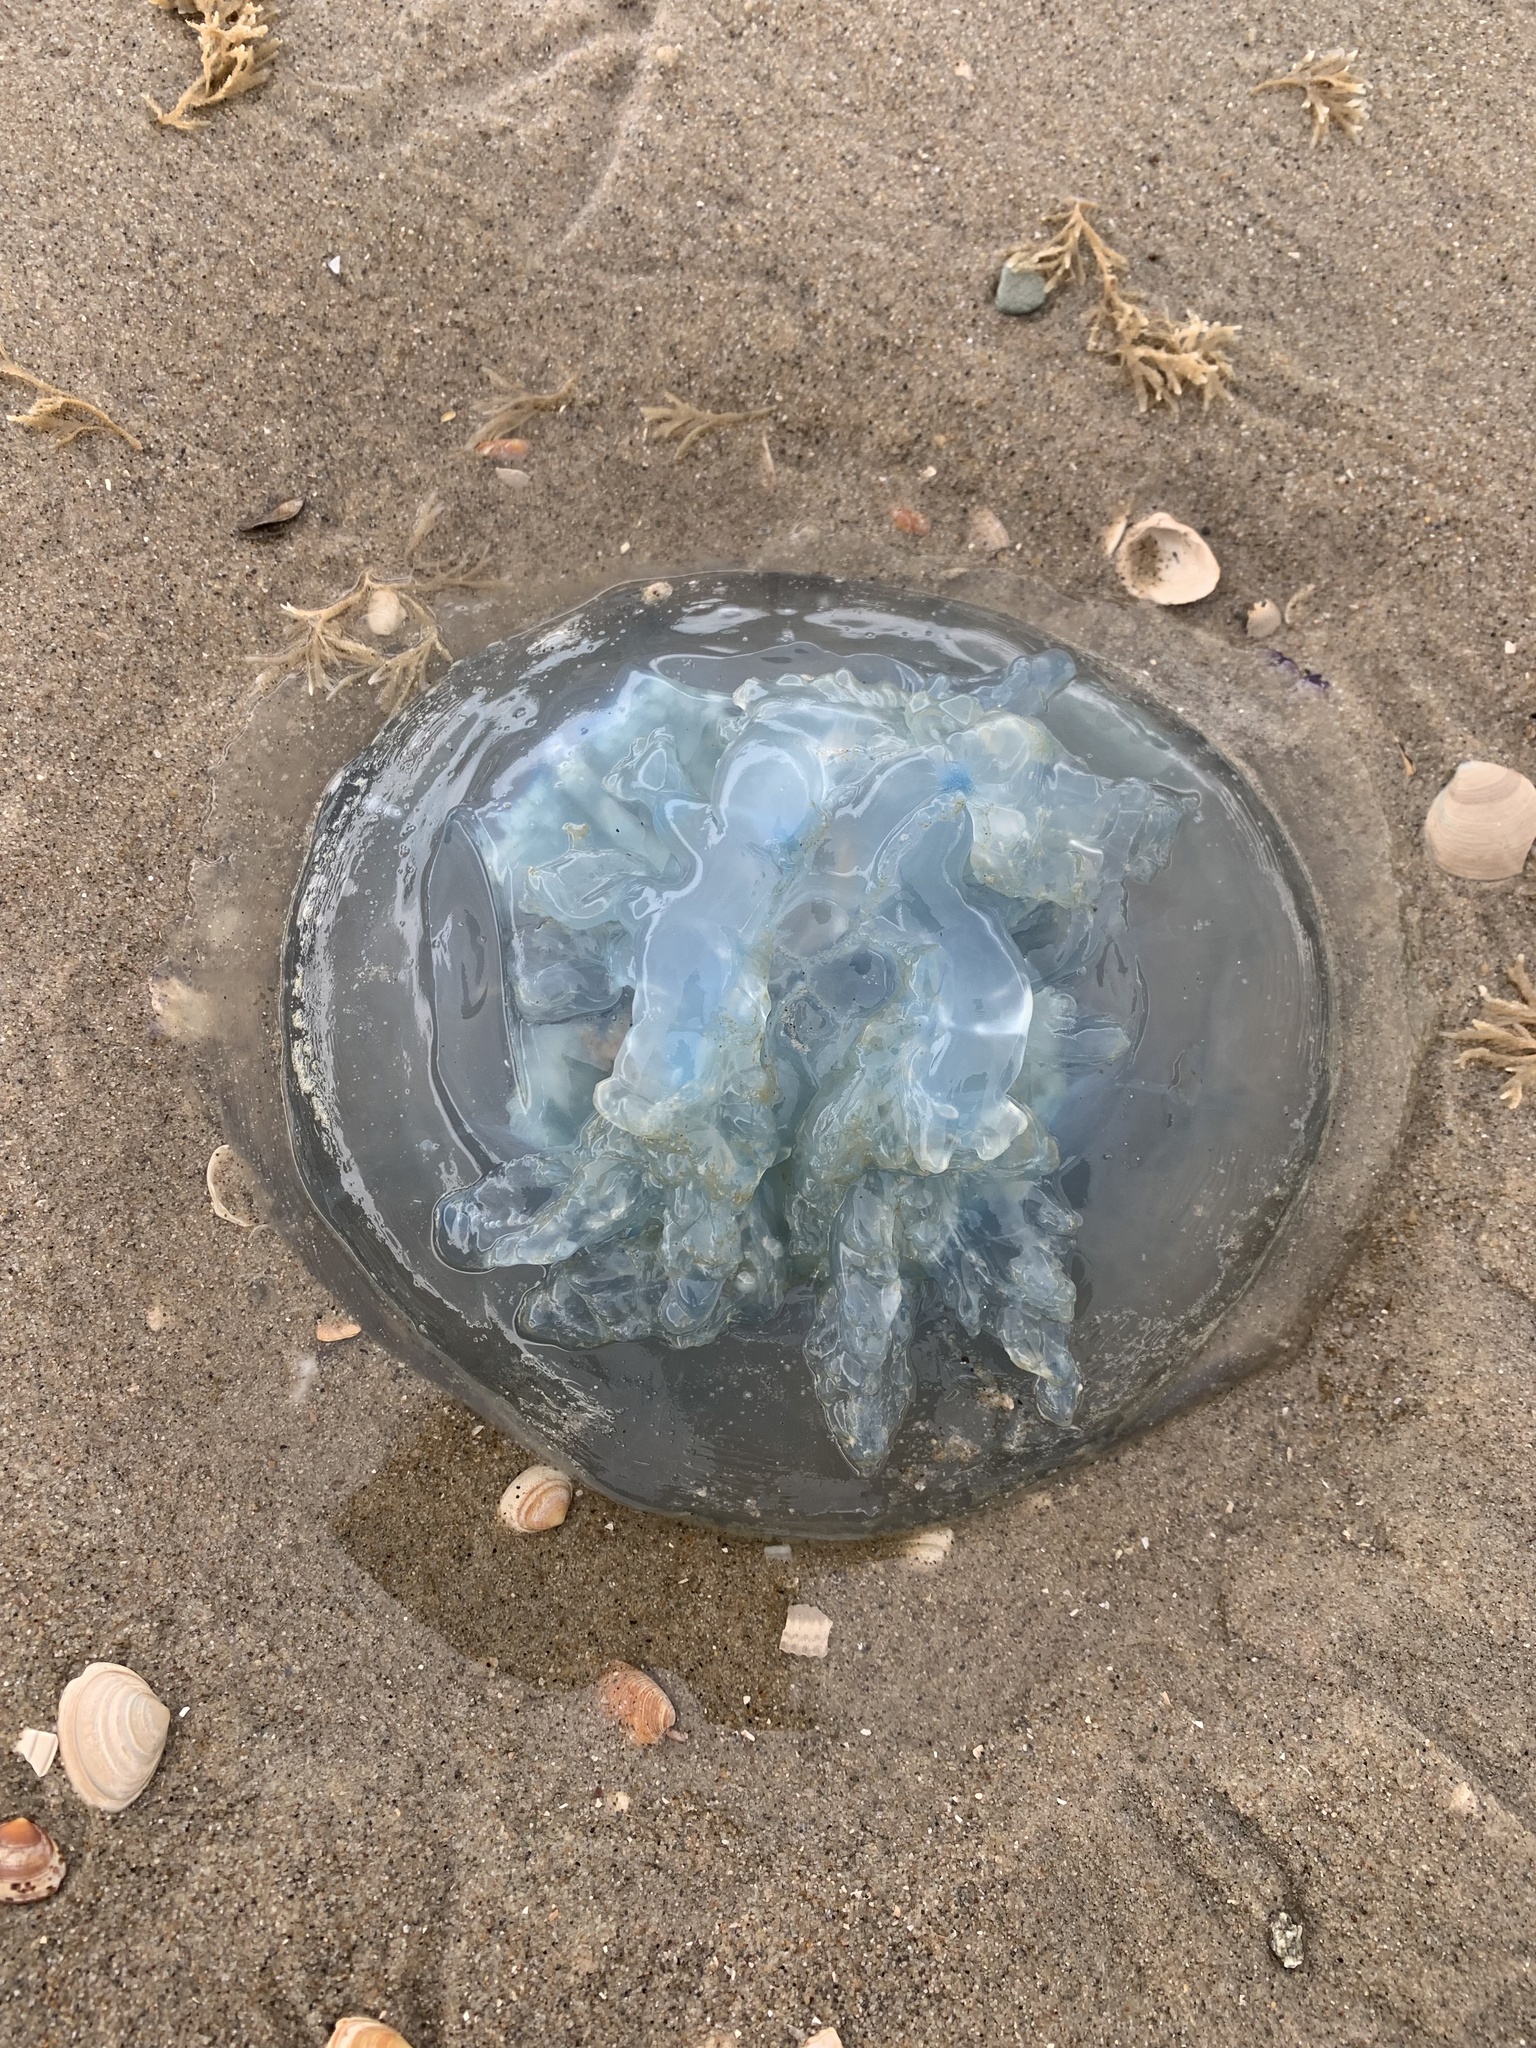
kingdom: Animalia
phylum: Cnidaria
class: Scyphozoa
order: Rhizostomeae
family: Rhizostomatidae
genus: Rhizostoma
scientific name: Rhizostoma octopus
